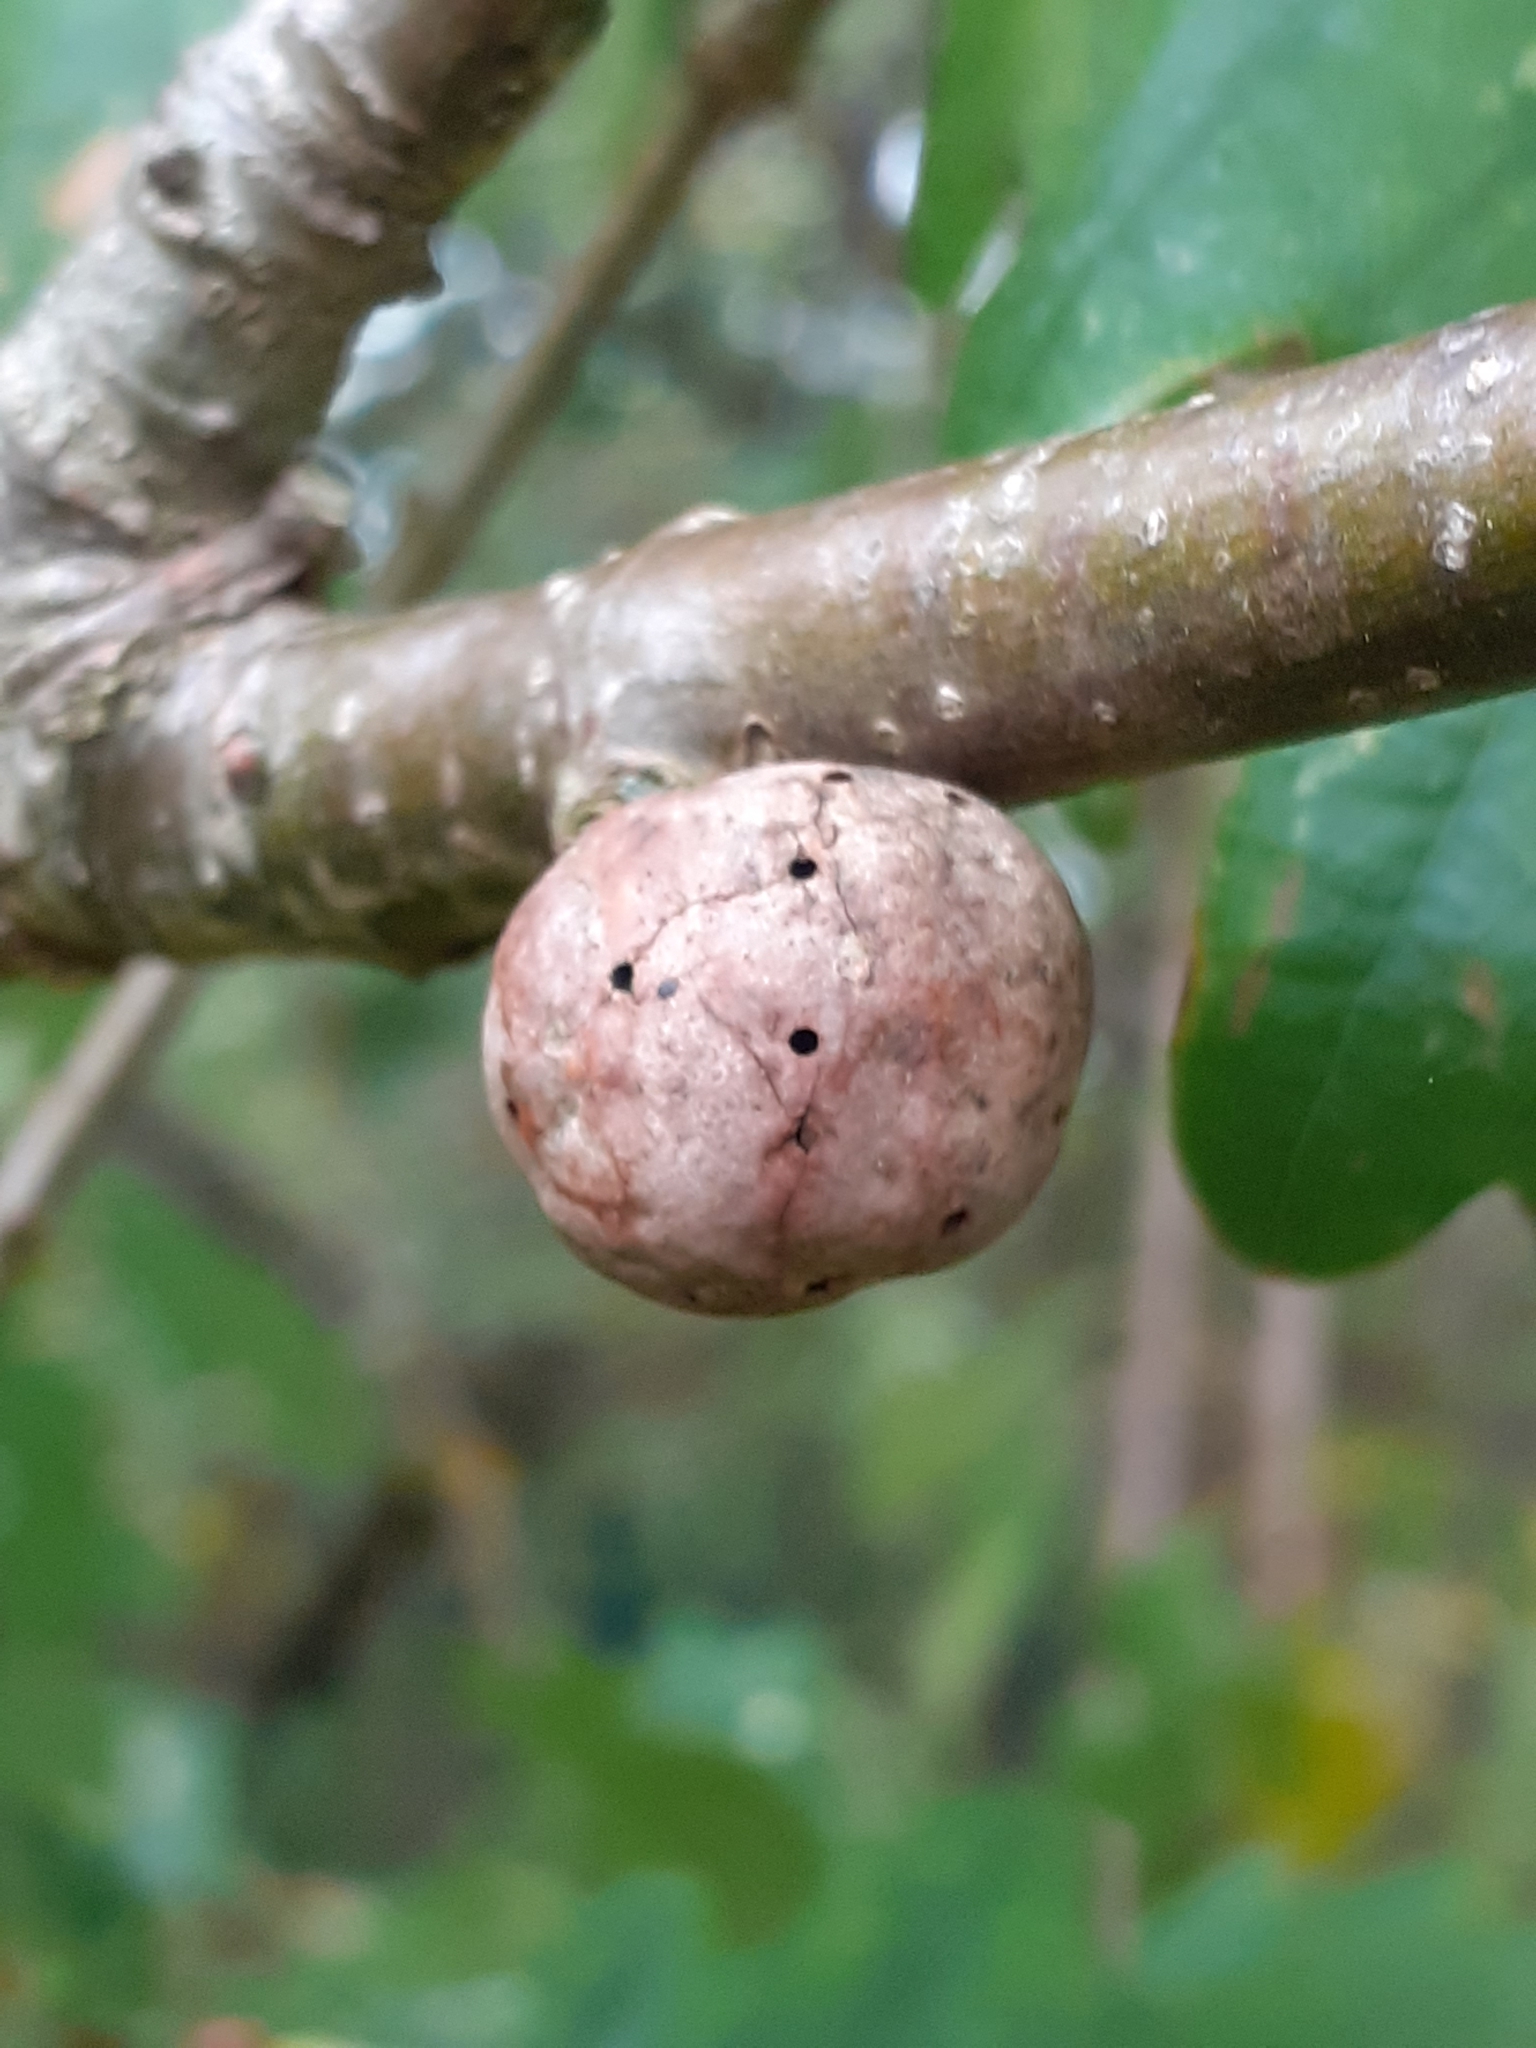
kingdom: Animalia
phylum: Arthropoda
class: Insecta
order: Hymenoptera
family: Cynipidae
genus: Biorhiza
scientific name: Biorhiza pallida
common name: Oak apple
